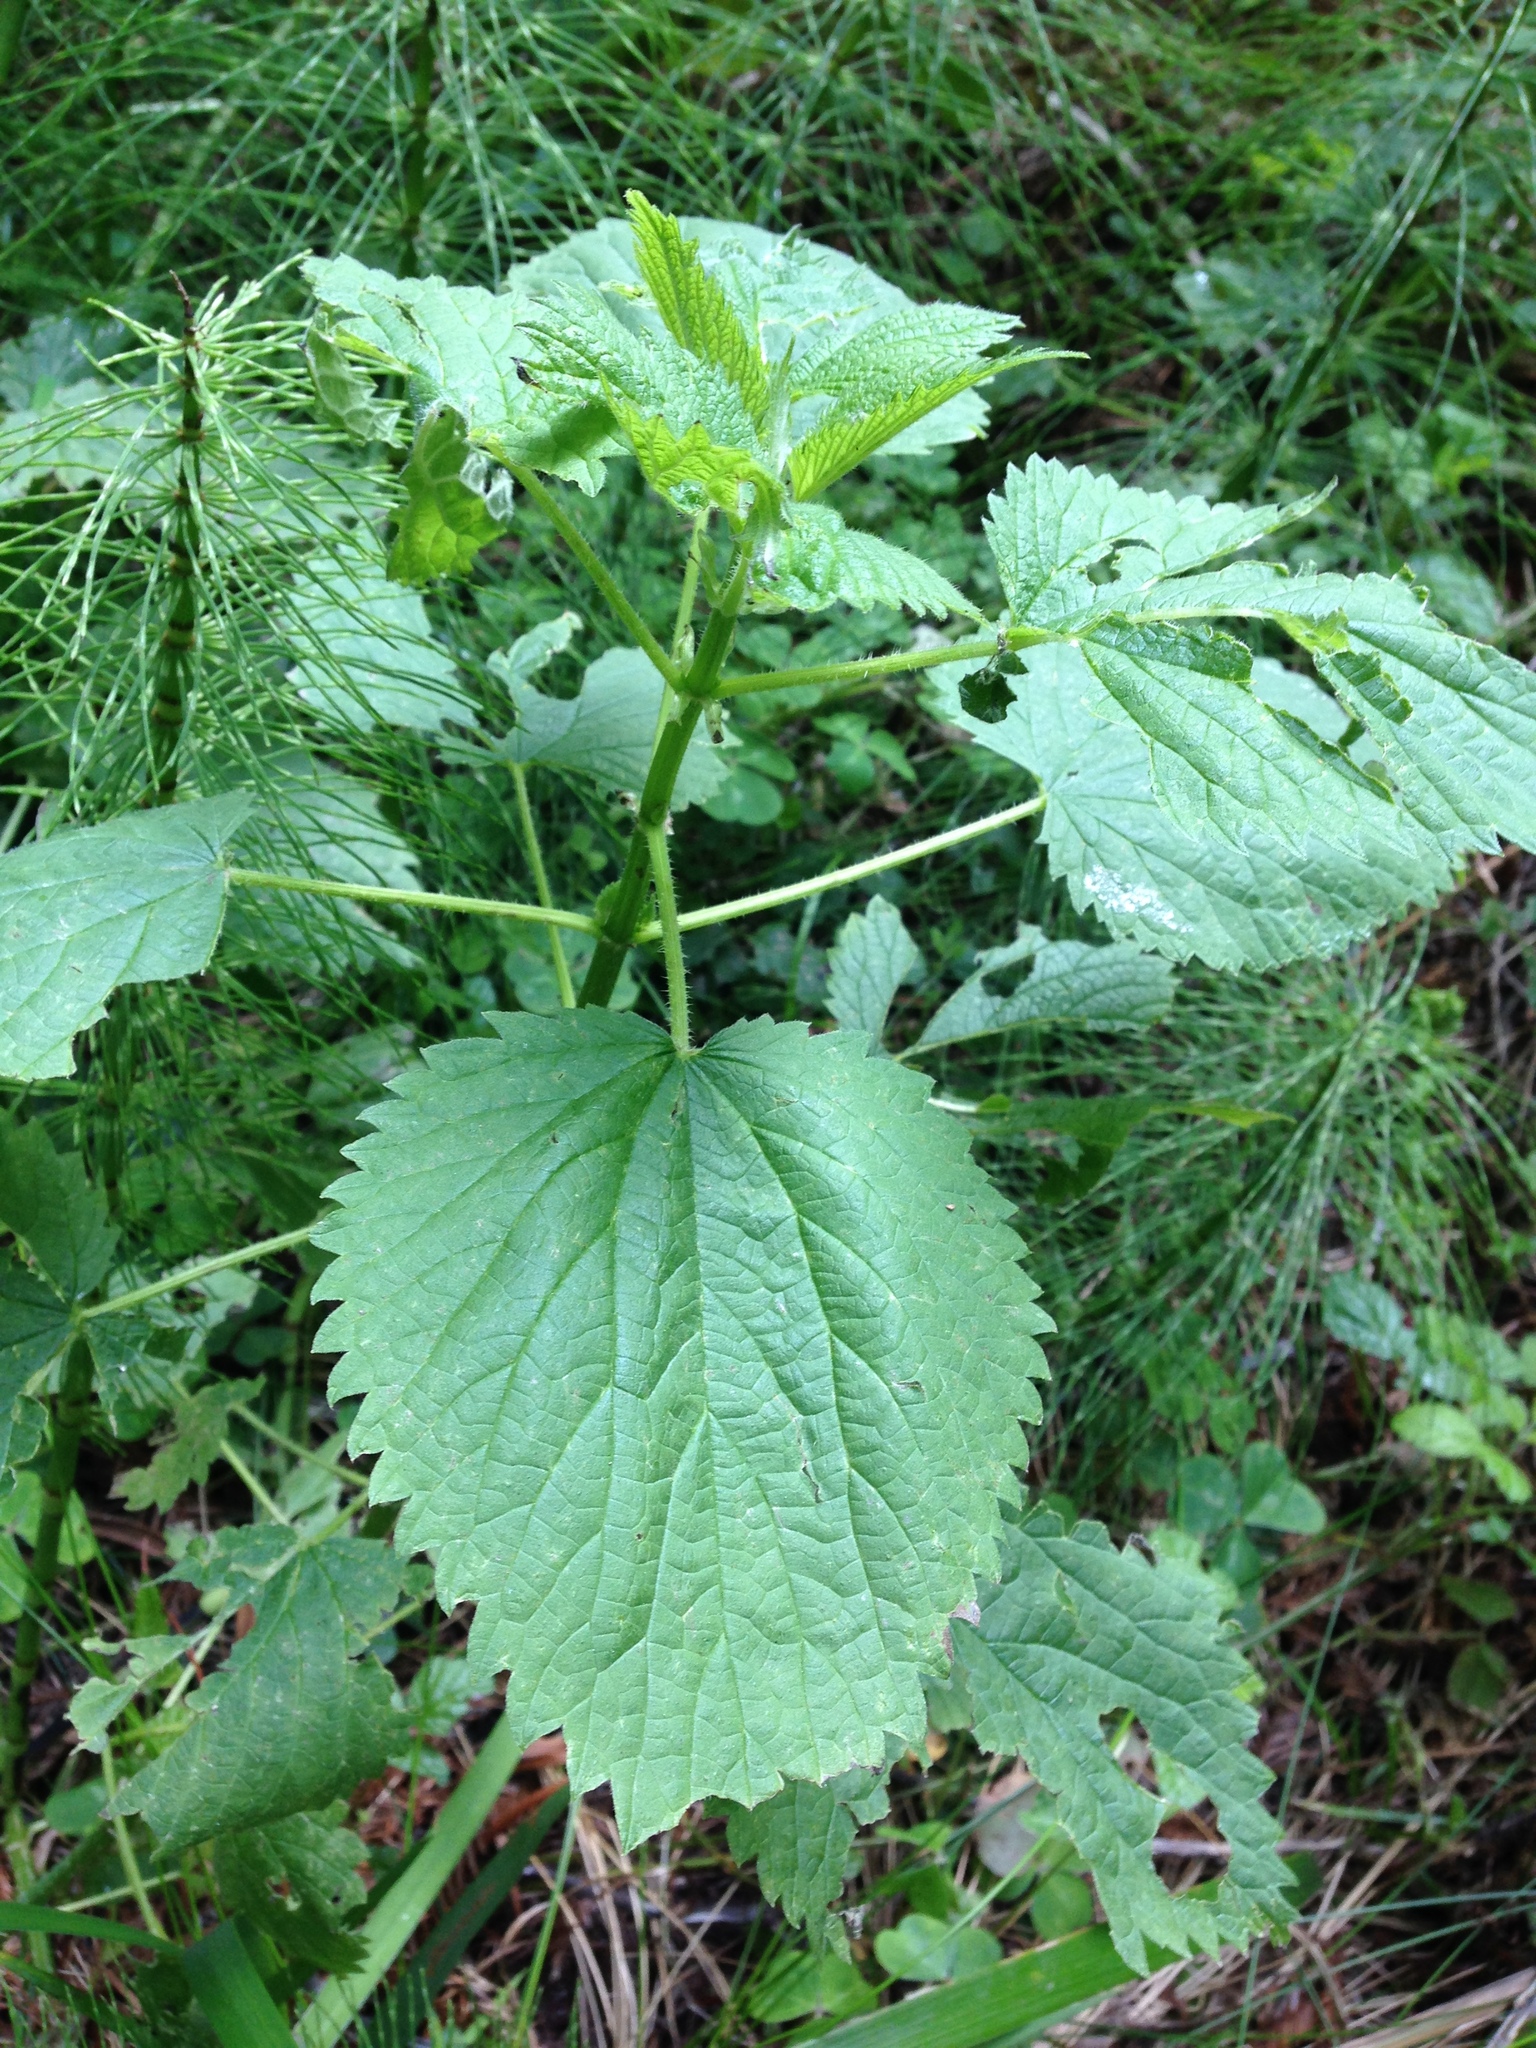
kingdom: Plantae
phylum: Tracheophyta
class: Magnoliopsida
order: Rosales
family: Urticaceae
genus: Urtica
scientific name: Urtica dioica
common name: Common nettle
